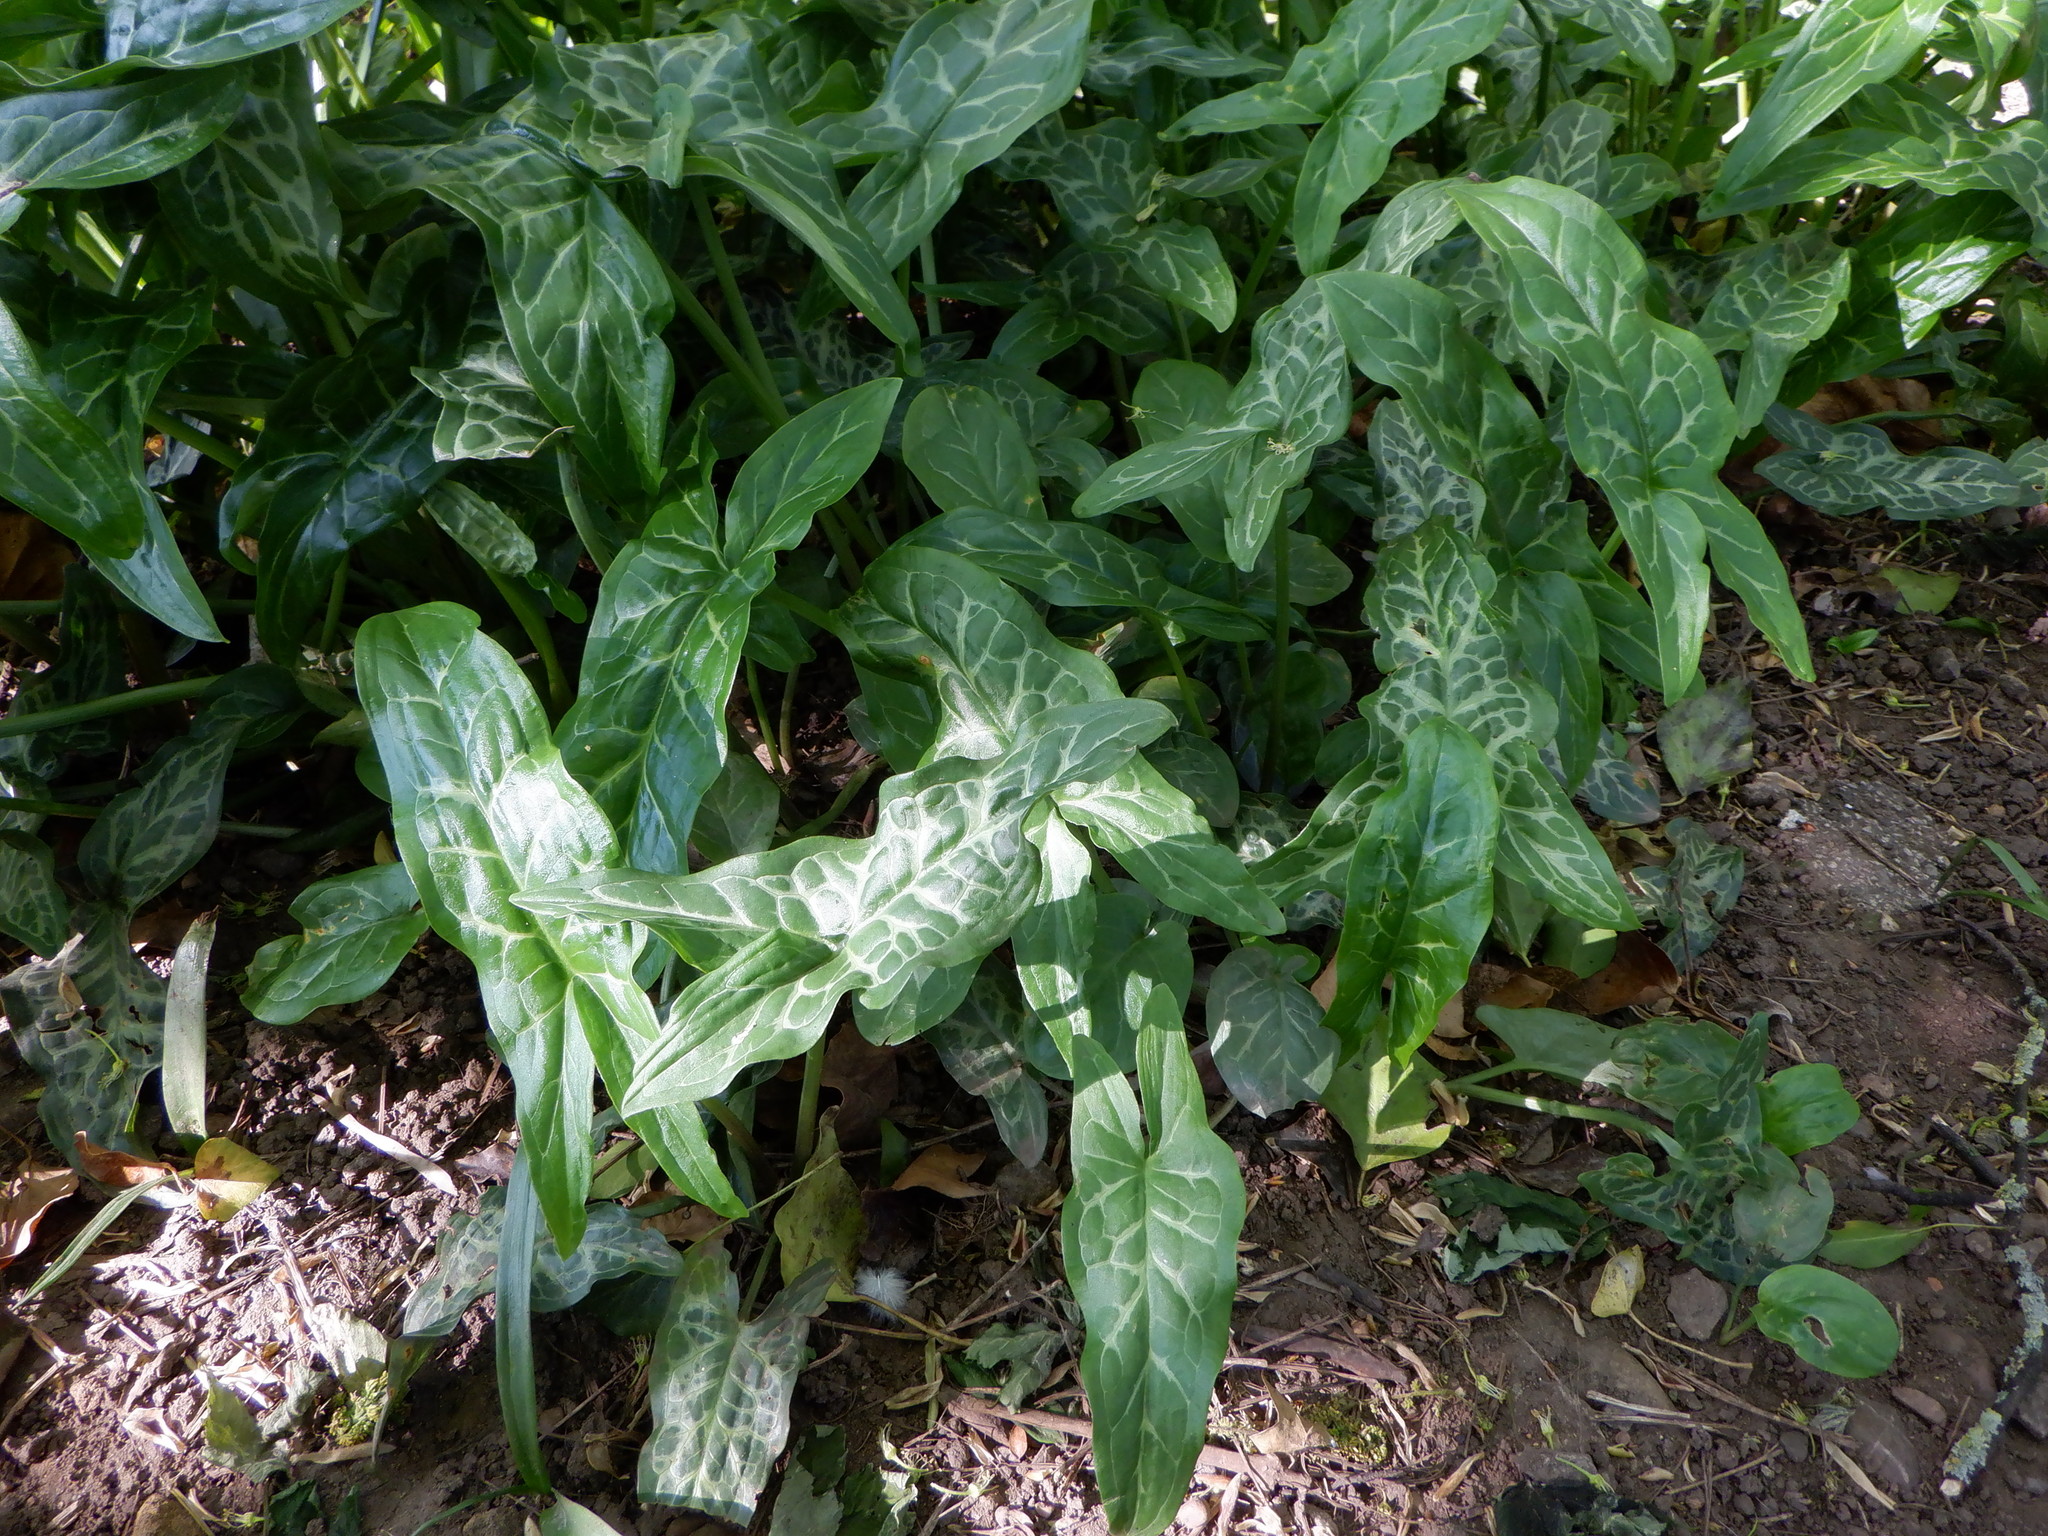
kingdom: Plantae
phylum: Tracheophyta
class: Liliopsida
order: Alismatales
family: Araceae
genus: Arum
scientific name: Arum italicum
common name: Italian lords-and-ladies
